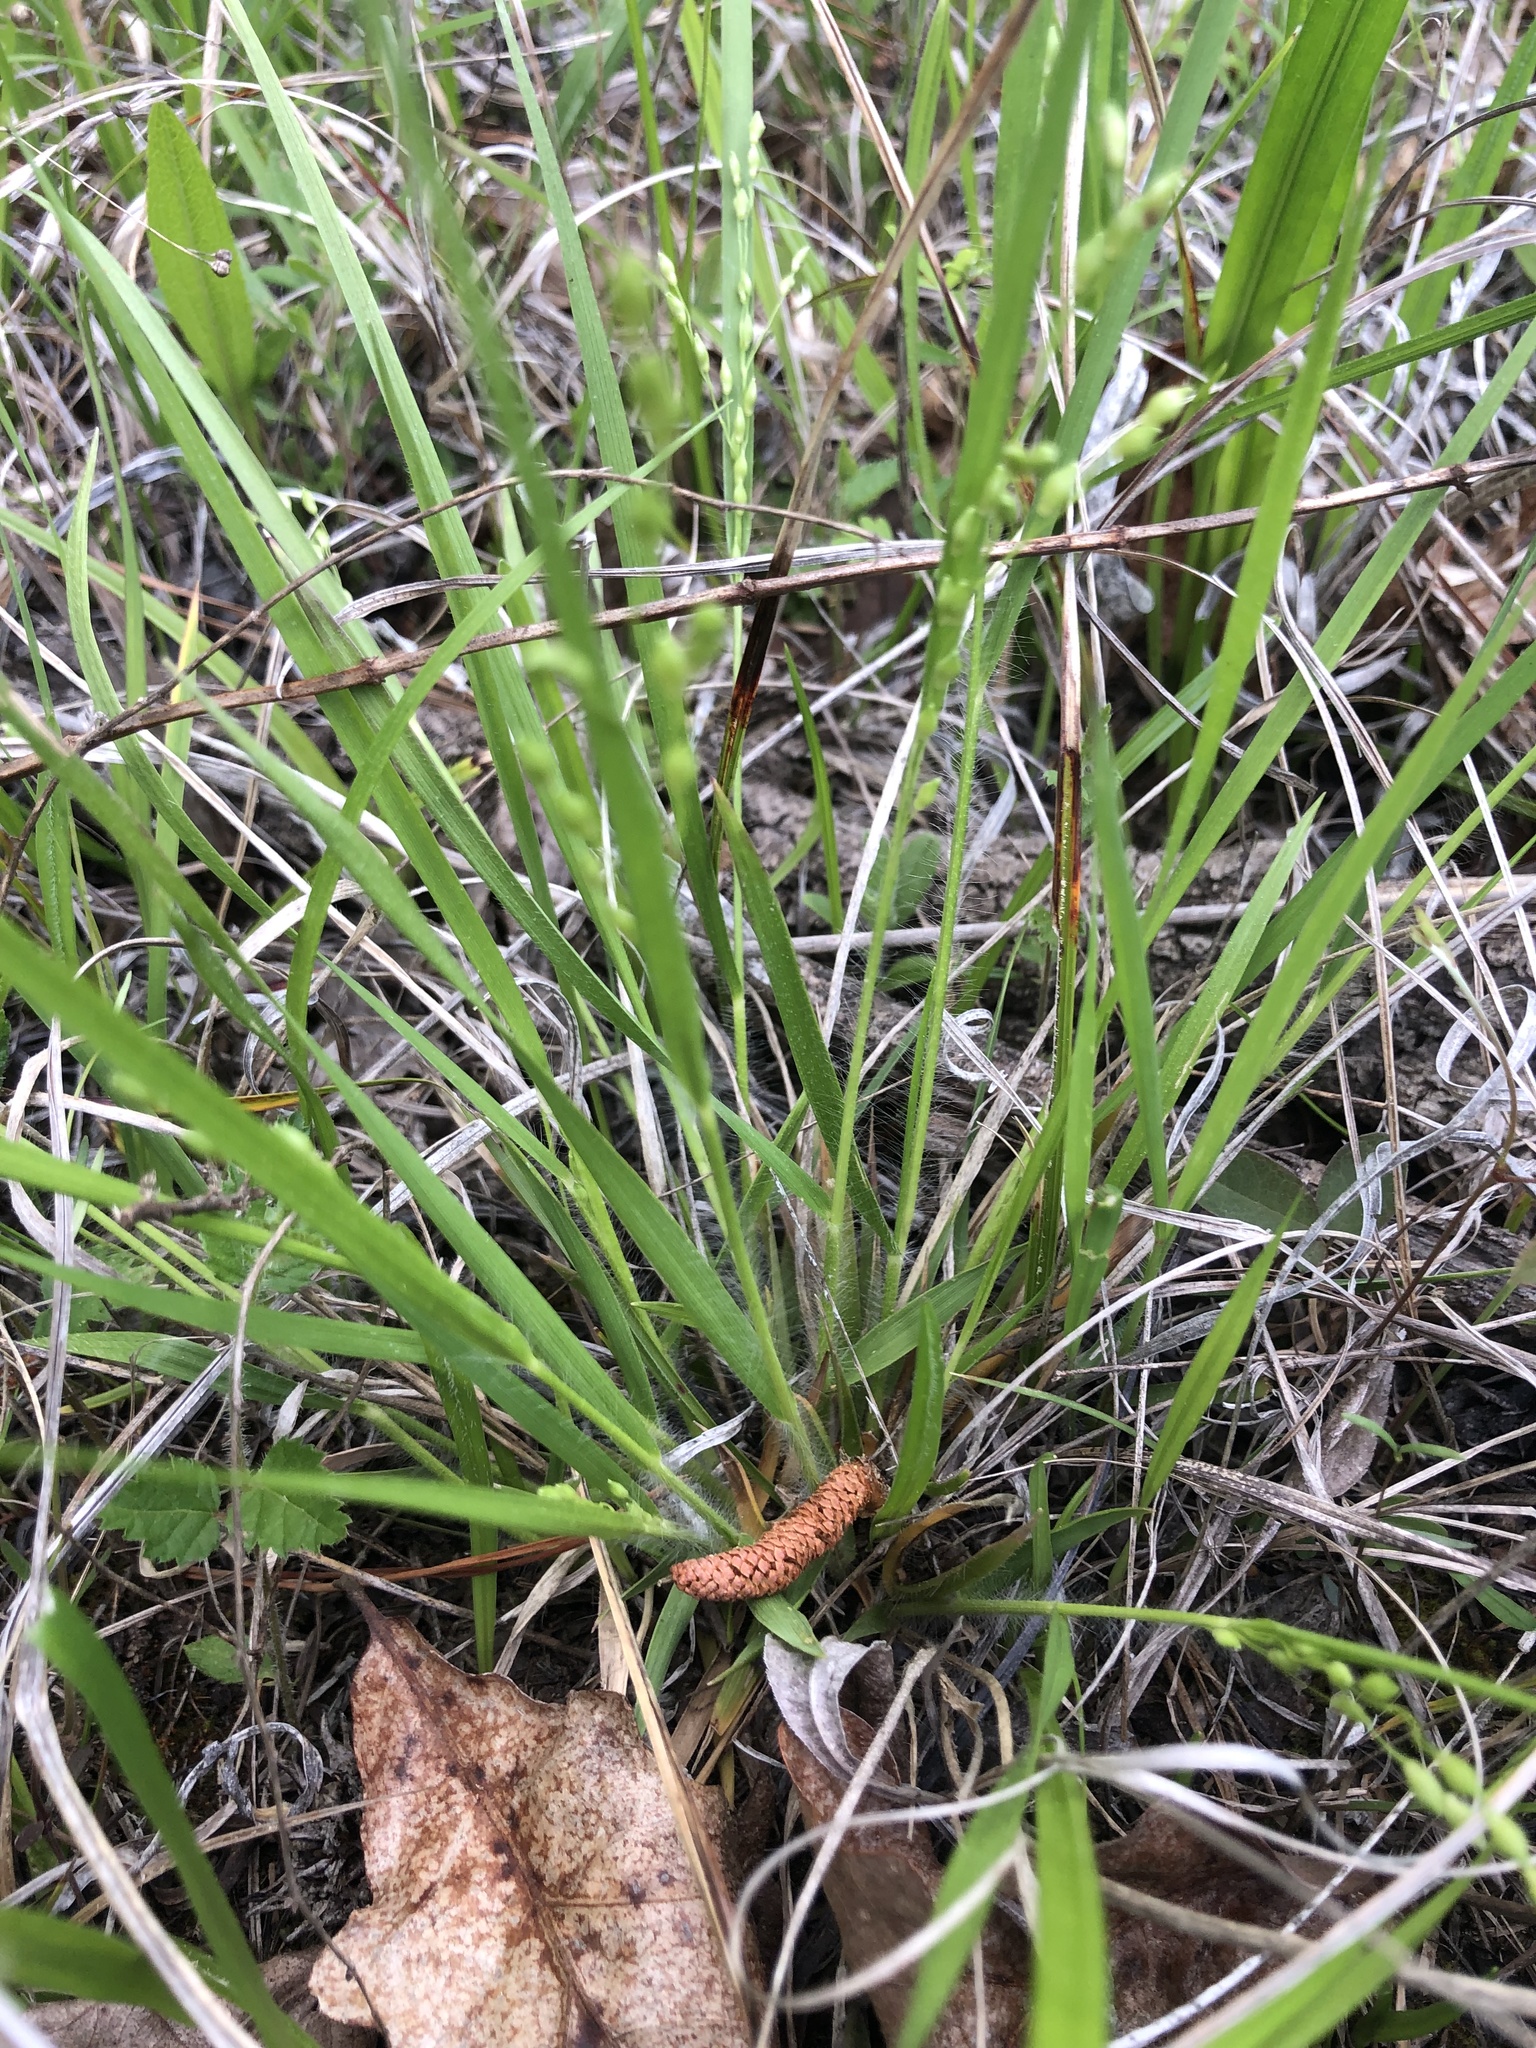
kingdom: Plantae
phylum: Tracheophyta
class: Liliopsida
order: Poales
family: Poaceae
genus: Dichanthelium
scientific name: Dichanthelium depauperatum
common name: Depauperate panicgrass
